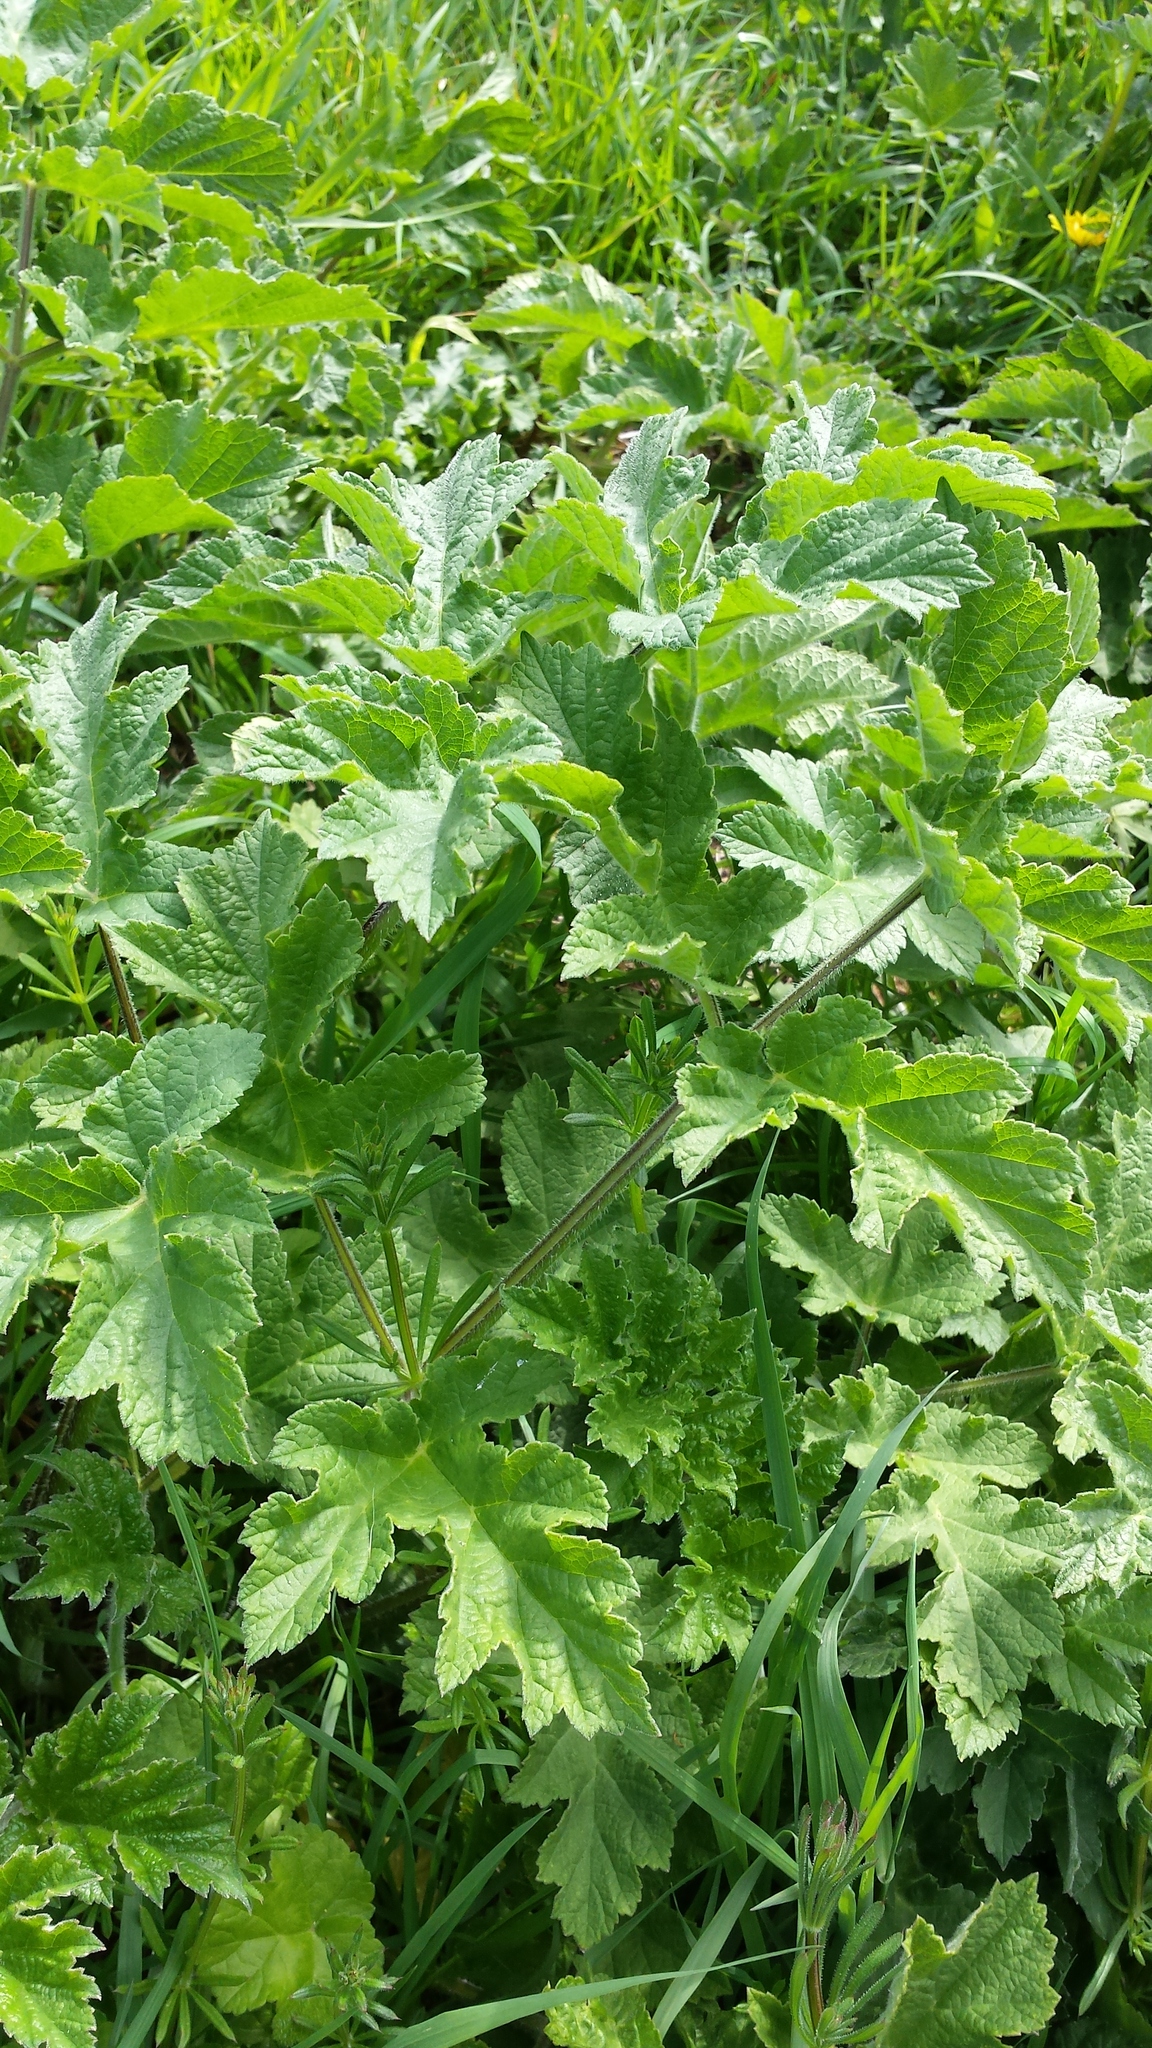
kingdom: Plantae
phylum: Tracheophyta
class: Magnoliopsida
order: Apiales
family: Apiaceae
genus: Heracleum
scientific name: Heracleum sphondylium
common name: Hogweed
